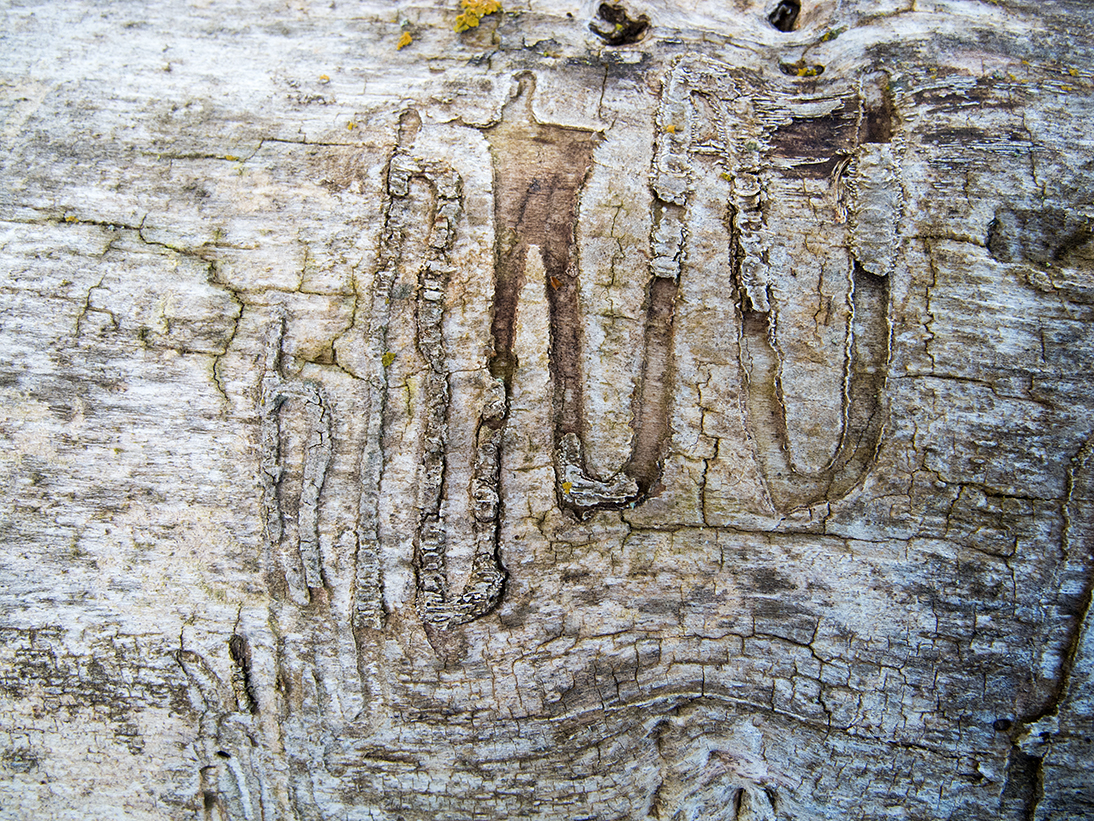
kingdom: Animalia
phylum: Arthropoda
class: Insecta
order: Coleoptera
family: Buprestidae
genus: Agrilus
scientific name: Agrilus ater
